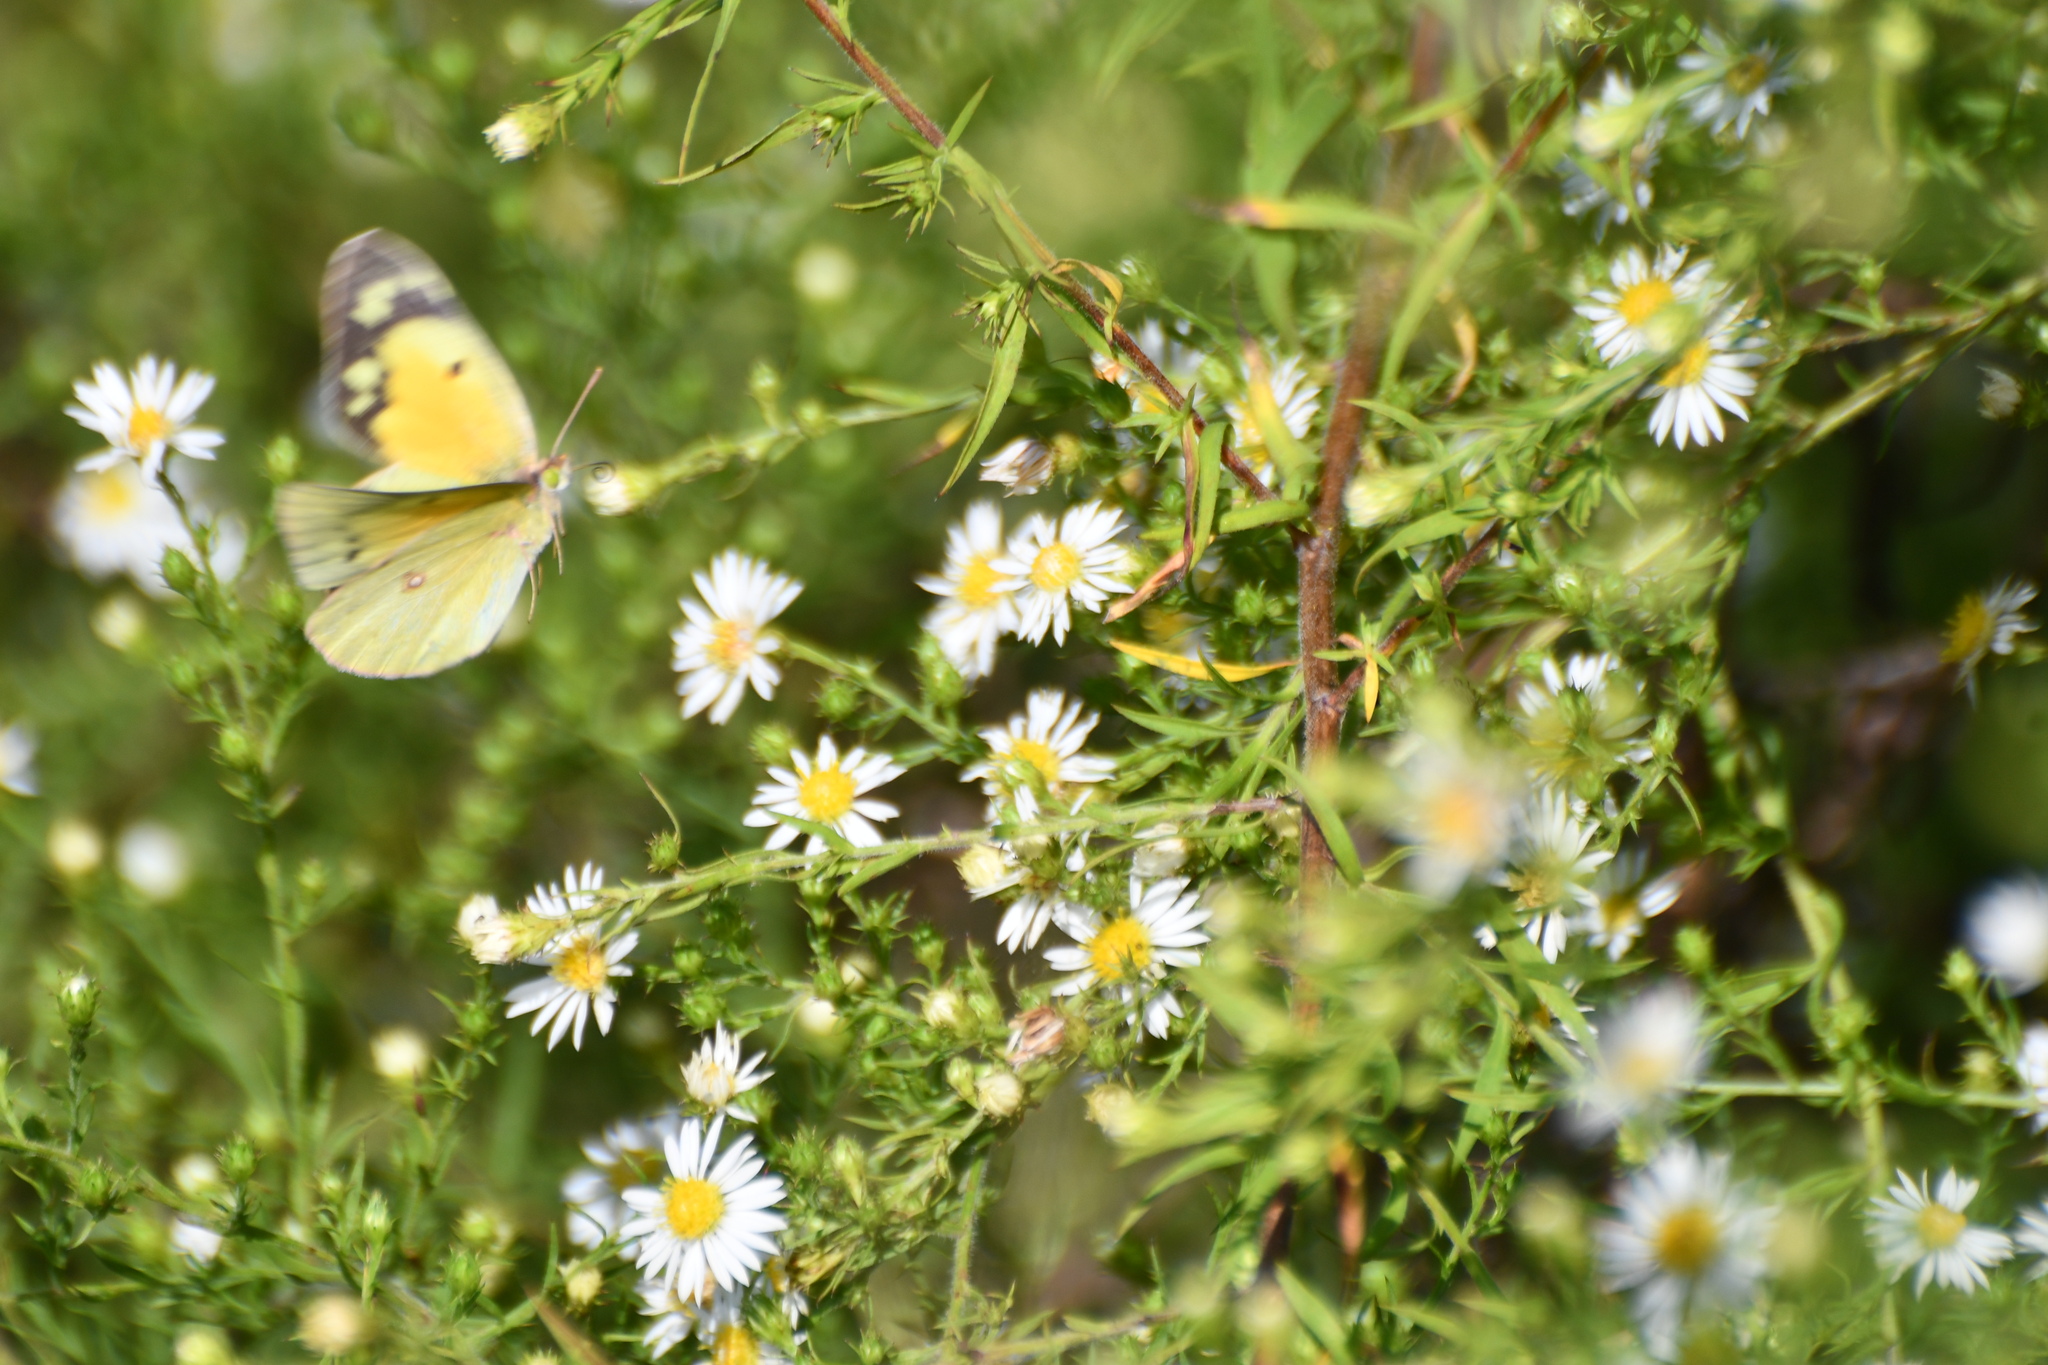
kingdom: Animalia
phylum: Arthropoda
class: Insecta
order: Lepidoptera
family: Pieridae
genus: Colias
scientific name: Colias eurytheme
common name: Alfalfa butterfly
